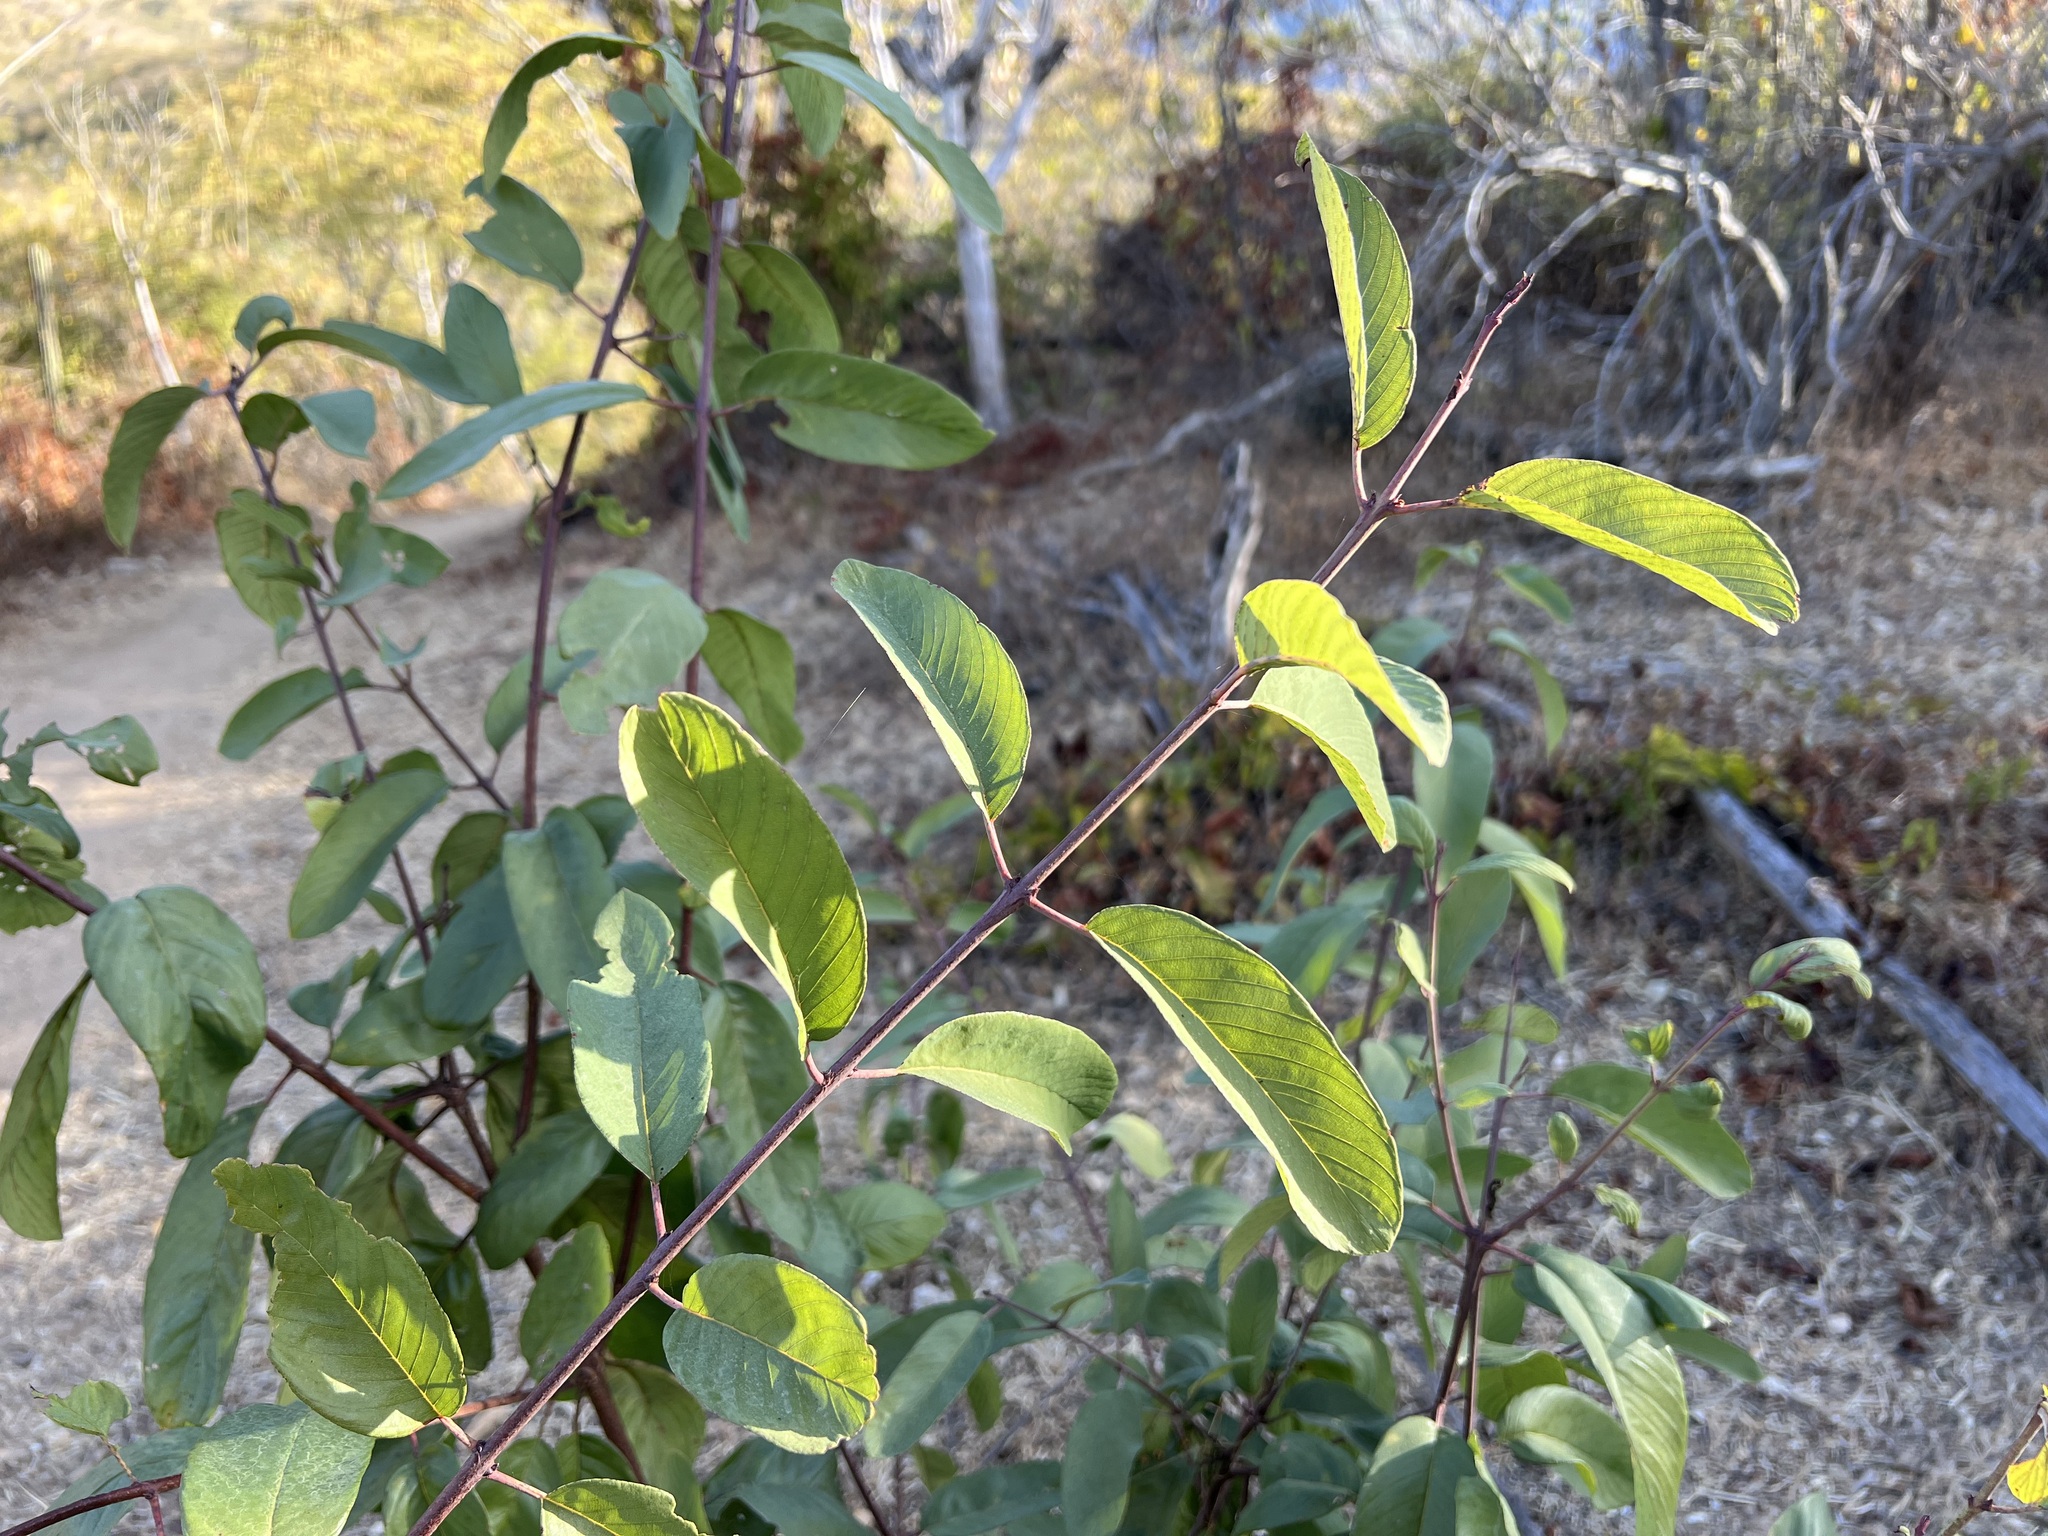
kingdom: Plantae
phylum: Tracheophyta
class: Magnoliopsida
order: Rosales
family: Rhamnaceae
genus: Karwinskia
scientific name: Karwinskia humboldtiana
